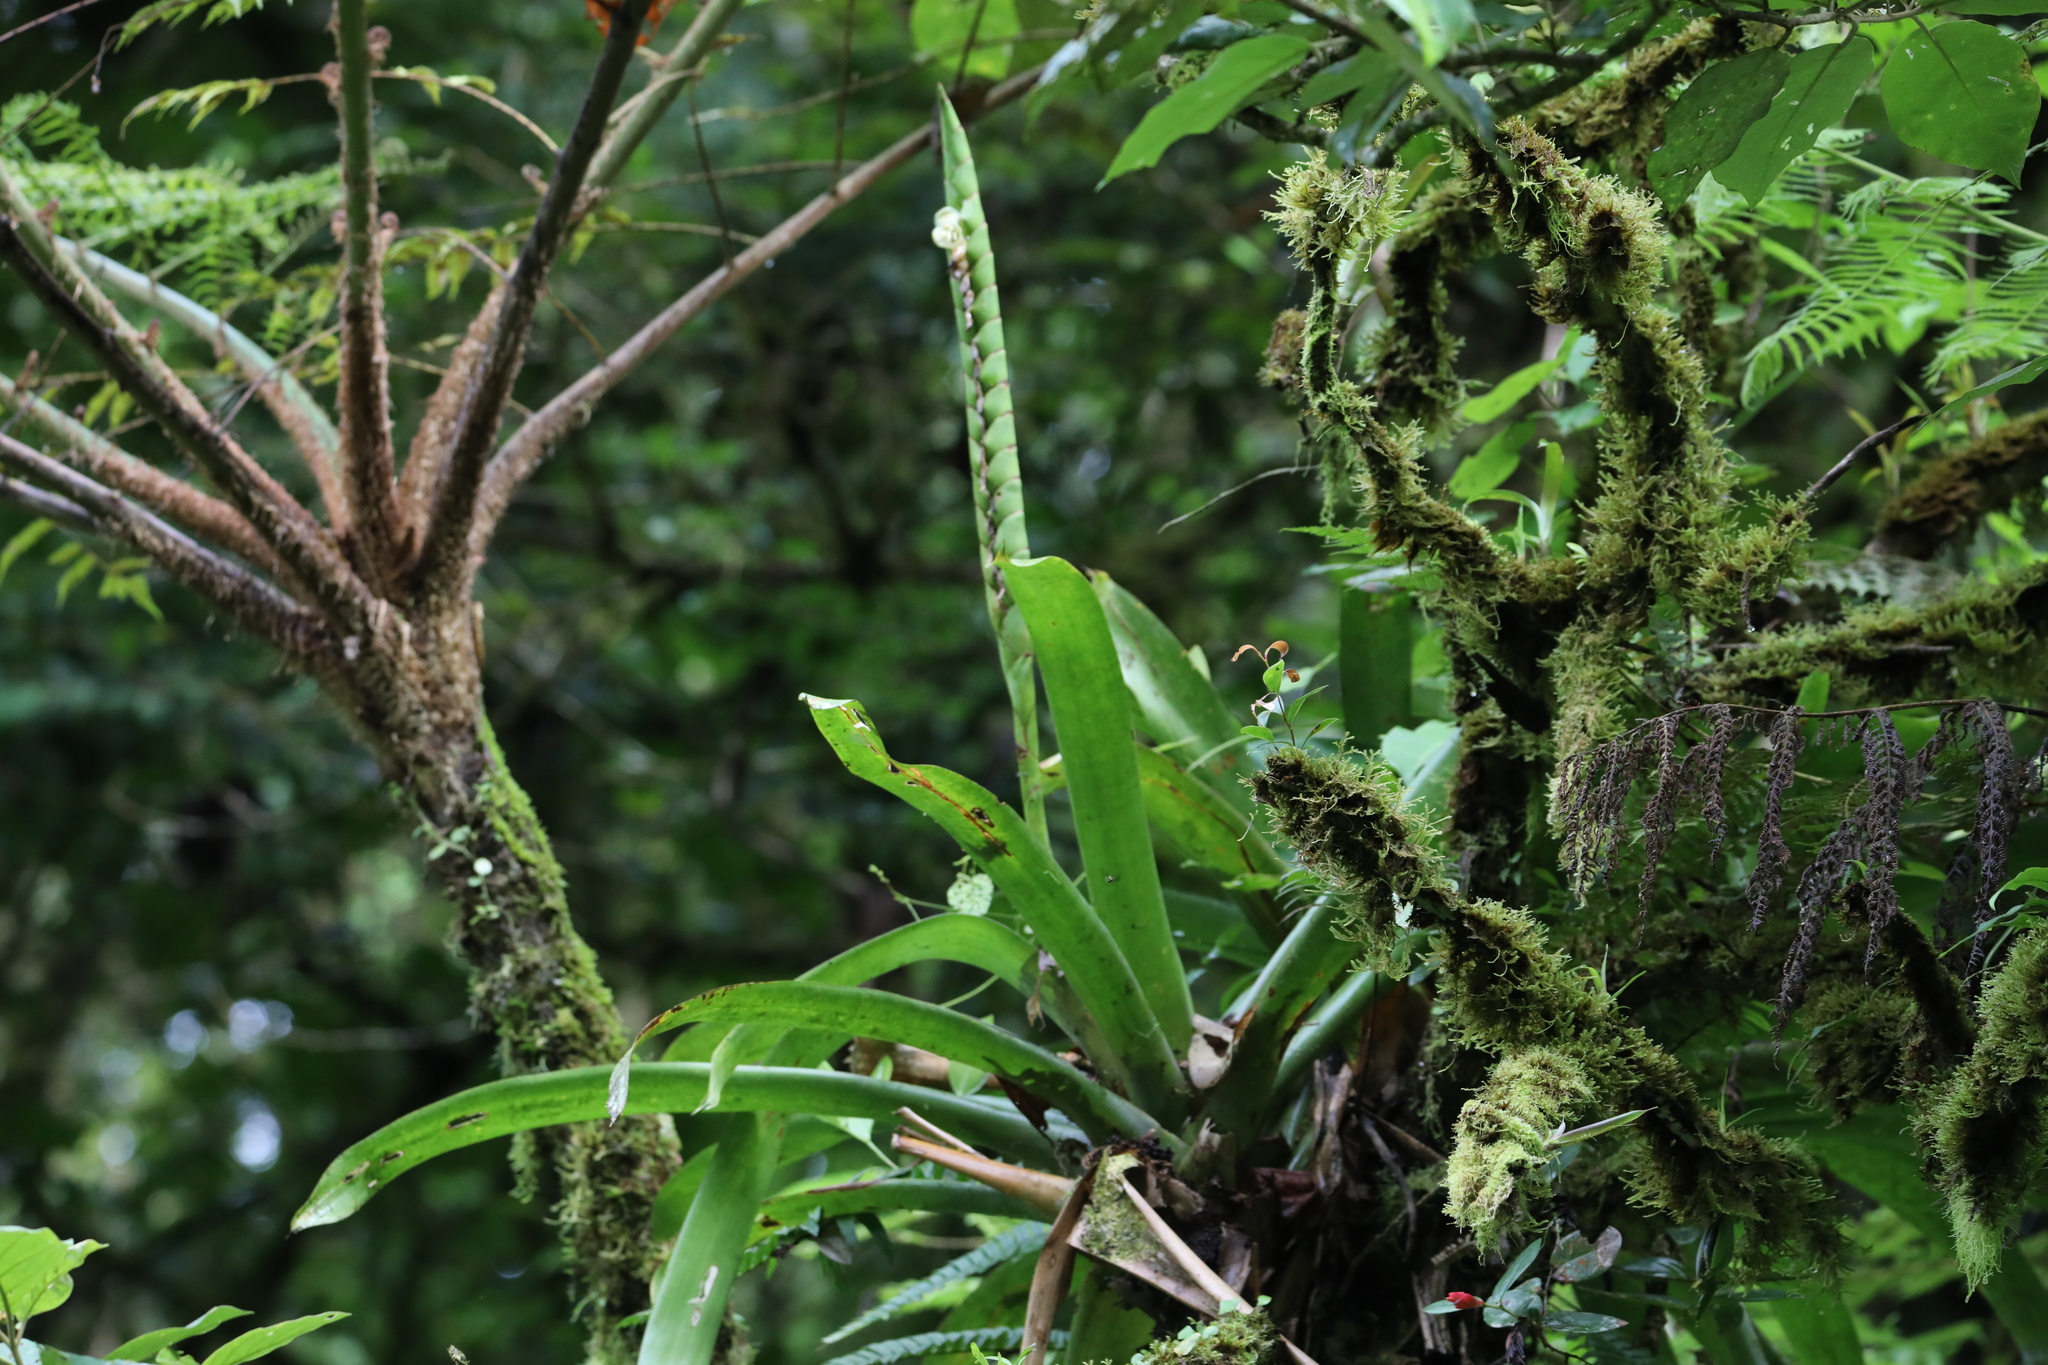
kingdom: Plantae
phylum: Tracheophyta
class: Liliopsida
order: Poales
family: Bromeliaceae
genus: Werauhia
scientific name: Werauhia gladioliflora
